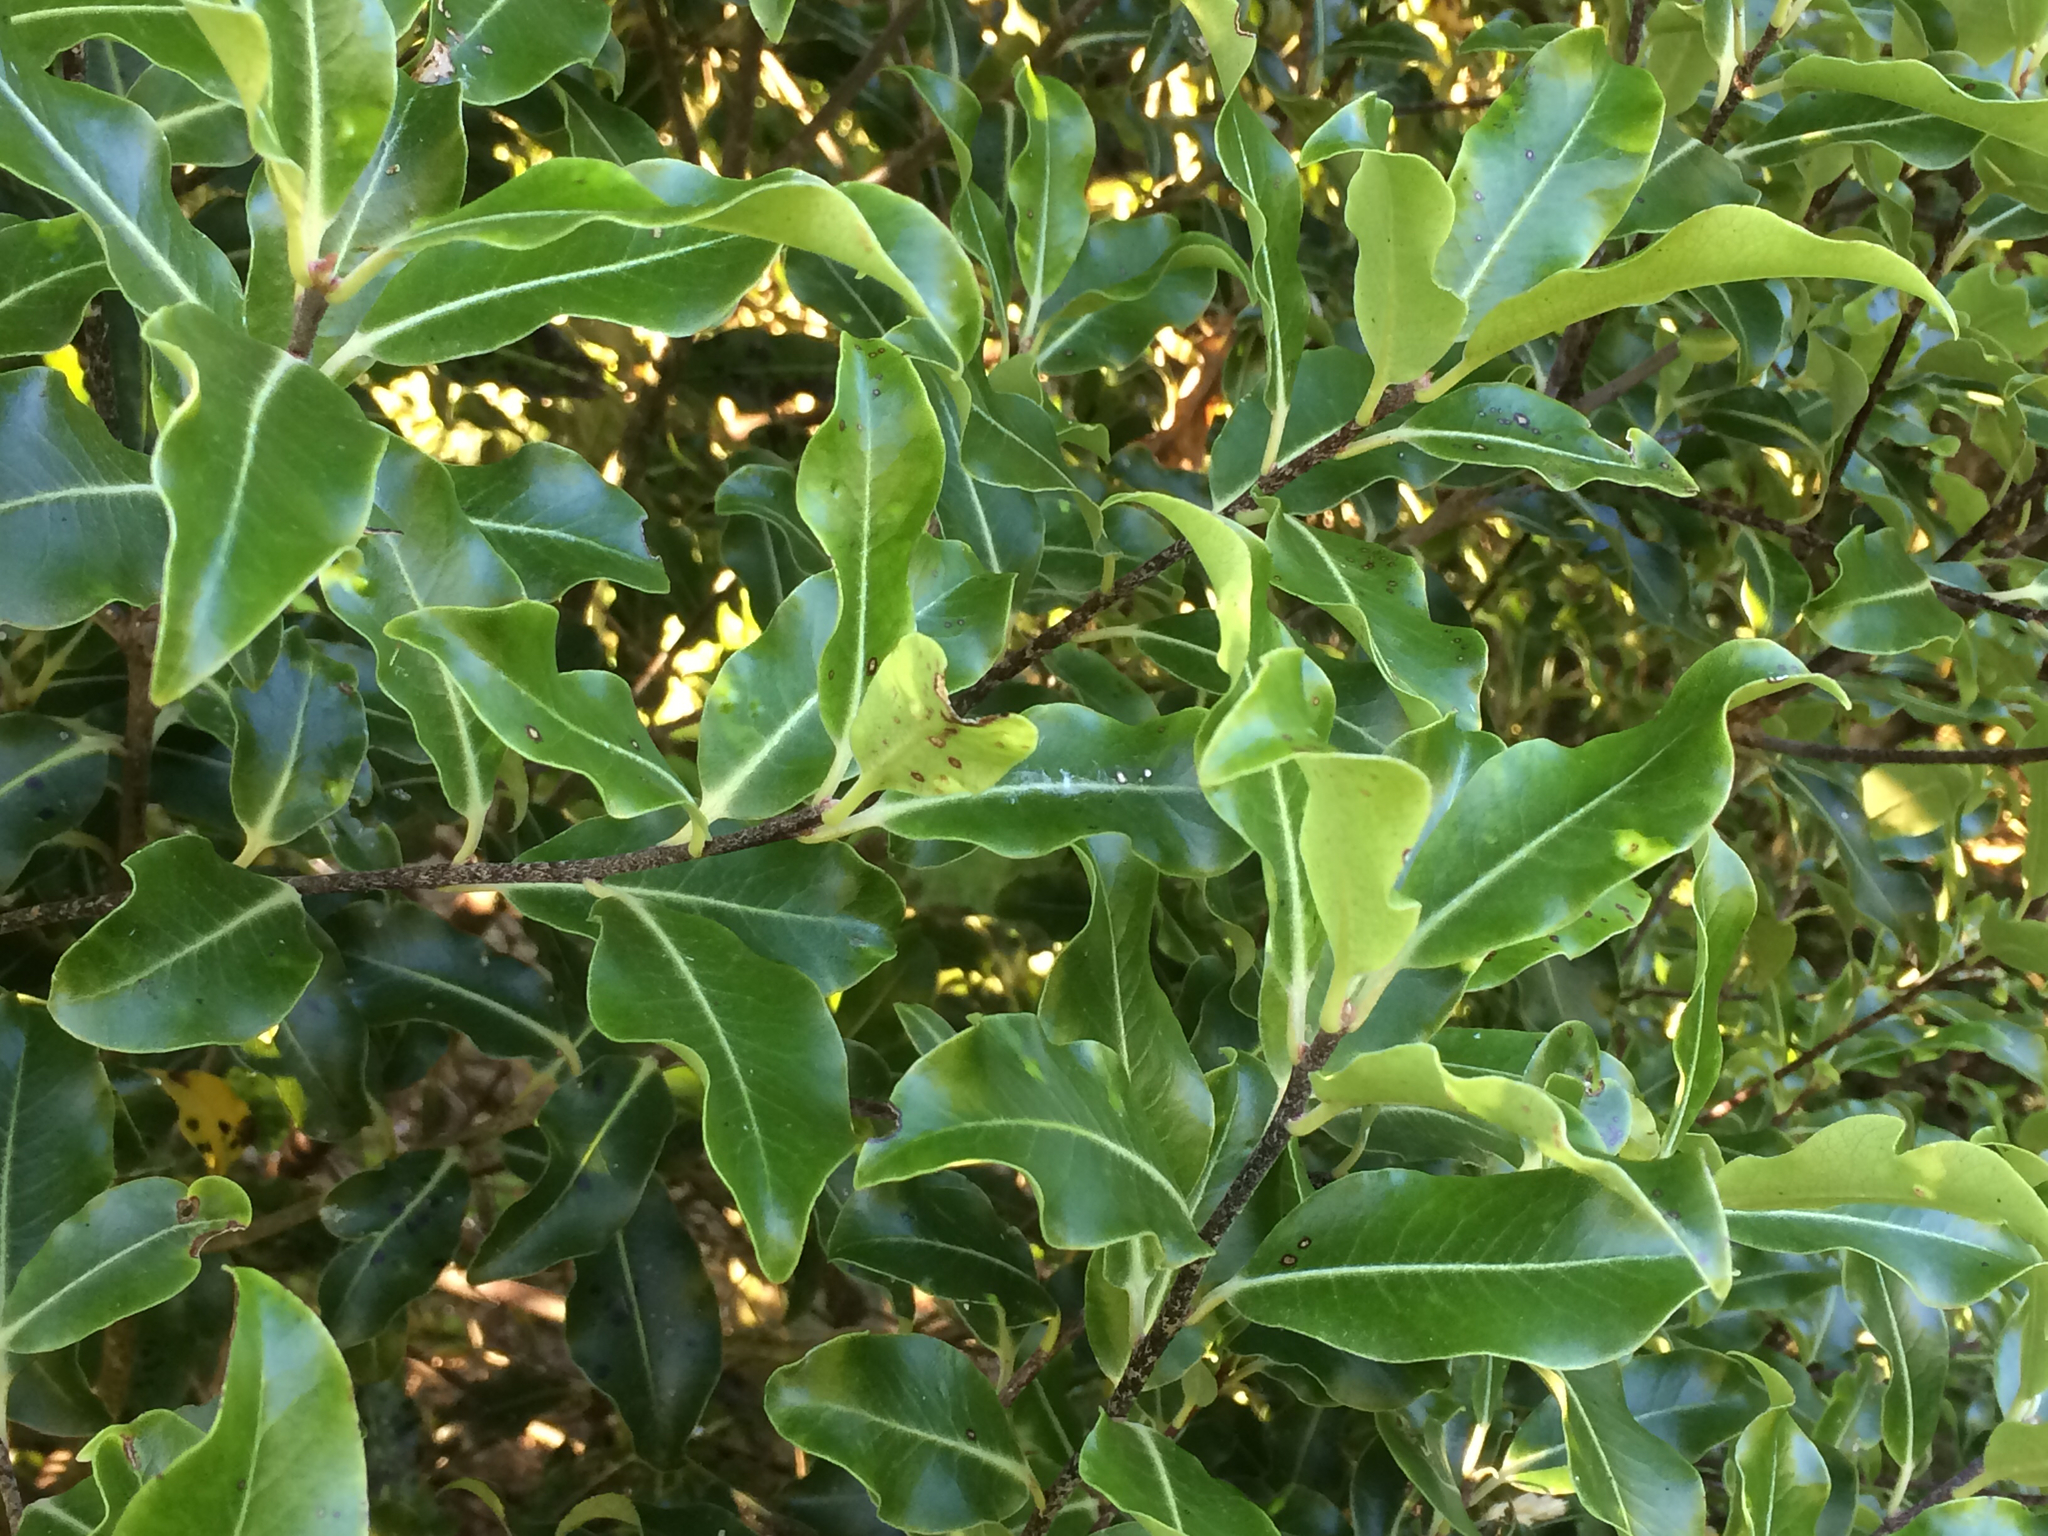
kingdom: Plantae
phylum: Tracheophyta
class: Magnoliopsida
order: Apiales
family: Pittosporaceae
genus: Pittosporum
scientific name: Pittosporum tenuifolium
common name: Kohuhu
